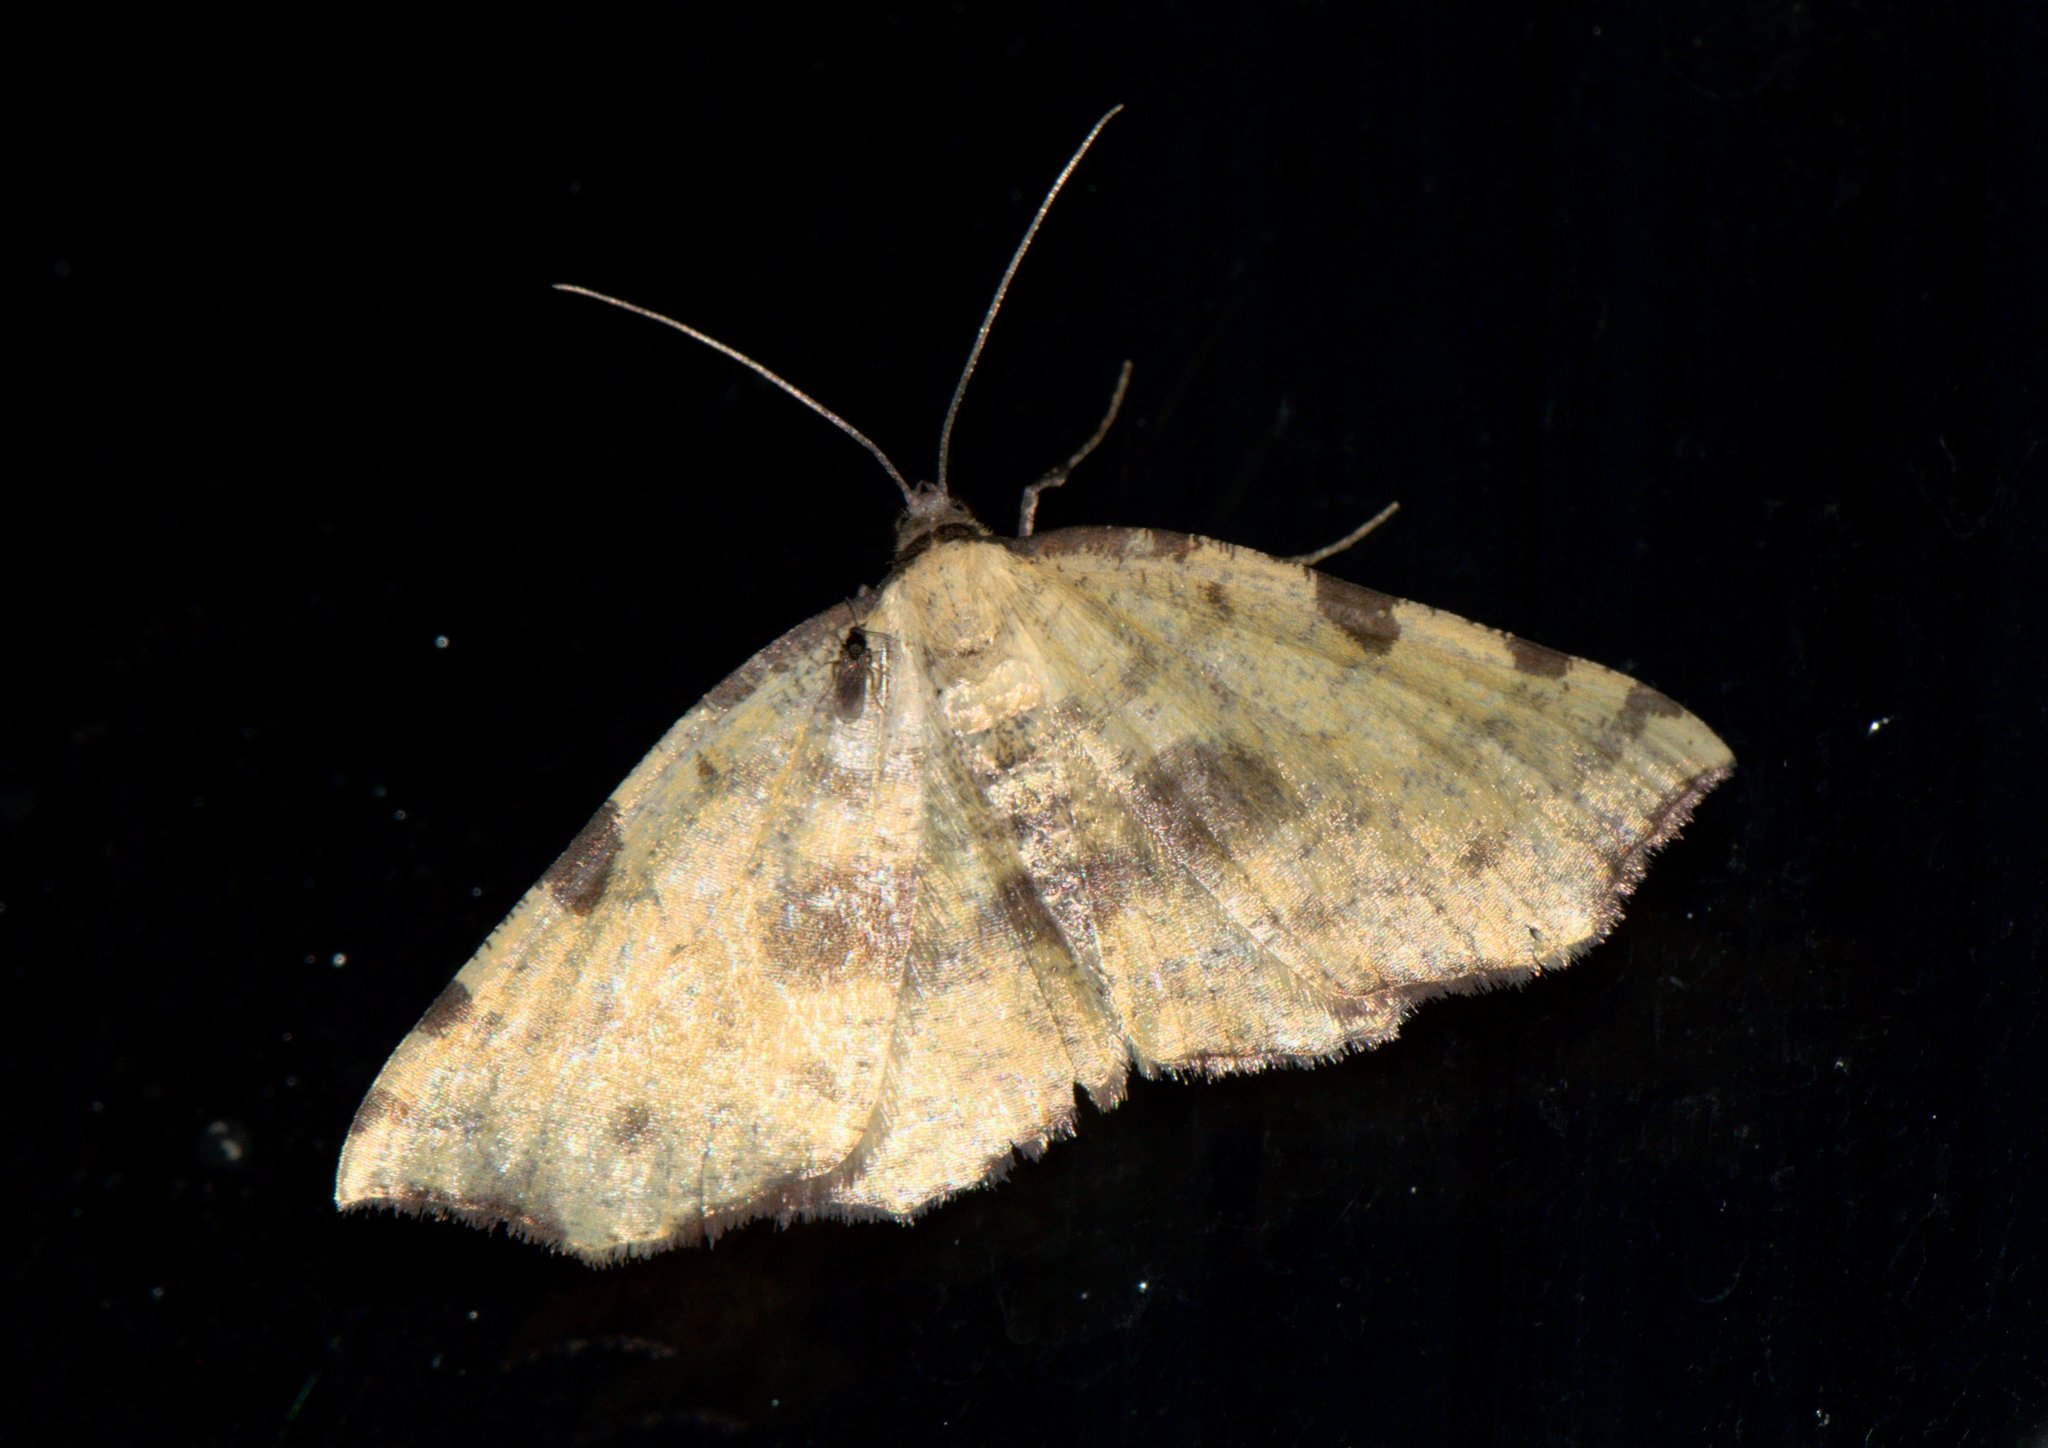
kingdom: Animalia
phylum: Arthropoda
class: Insecta
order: Lepidoptera
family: Geometridae
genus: Pseudopanthera
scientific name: Pseudopanthera himaleyica
